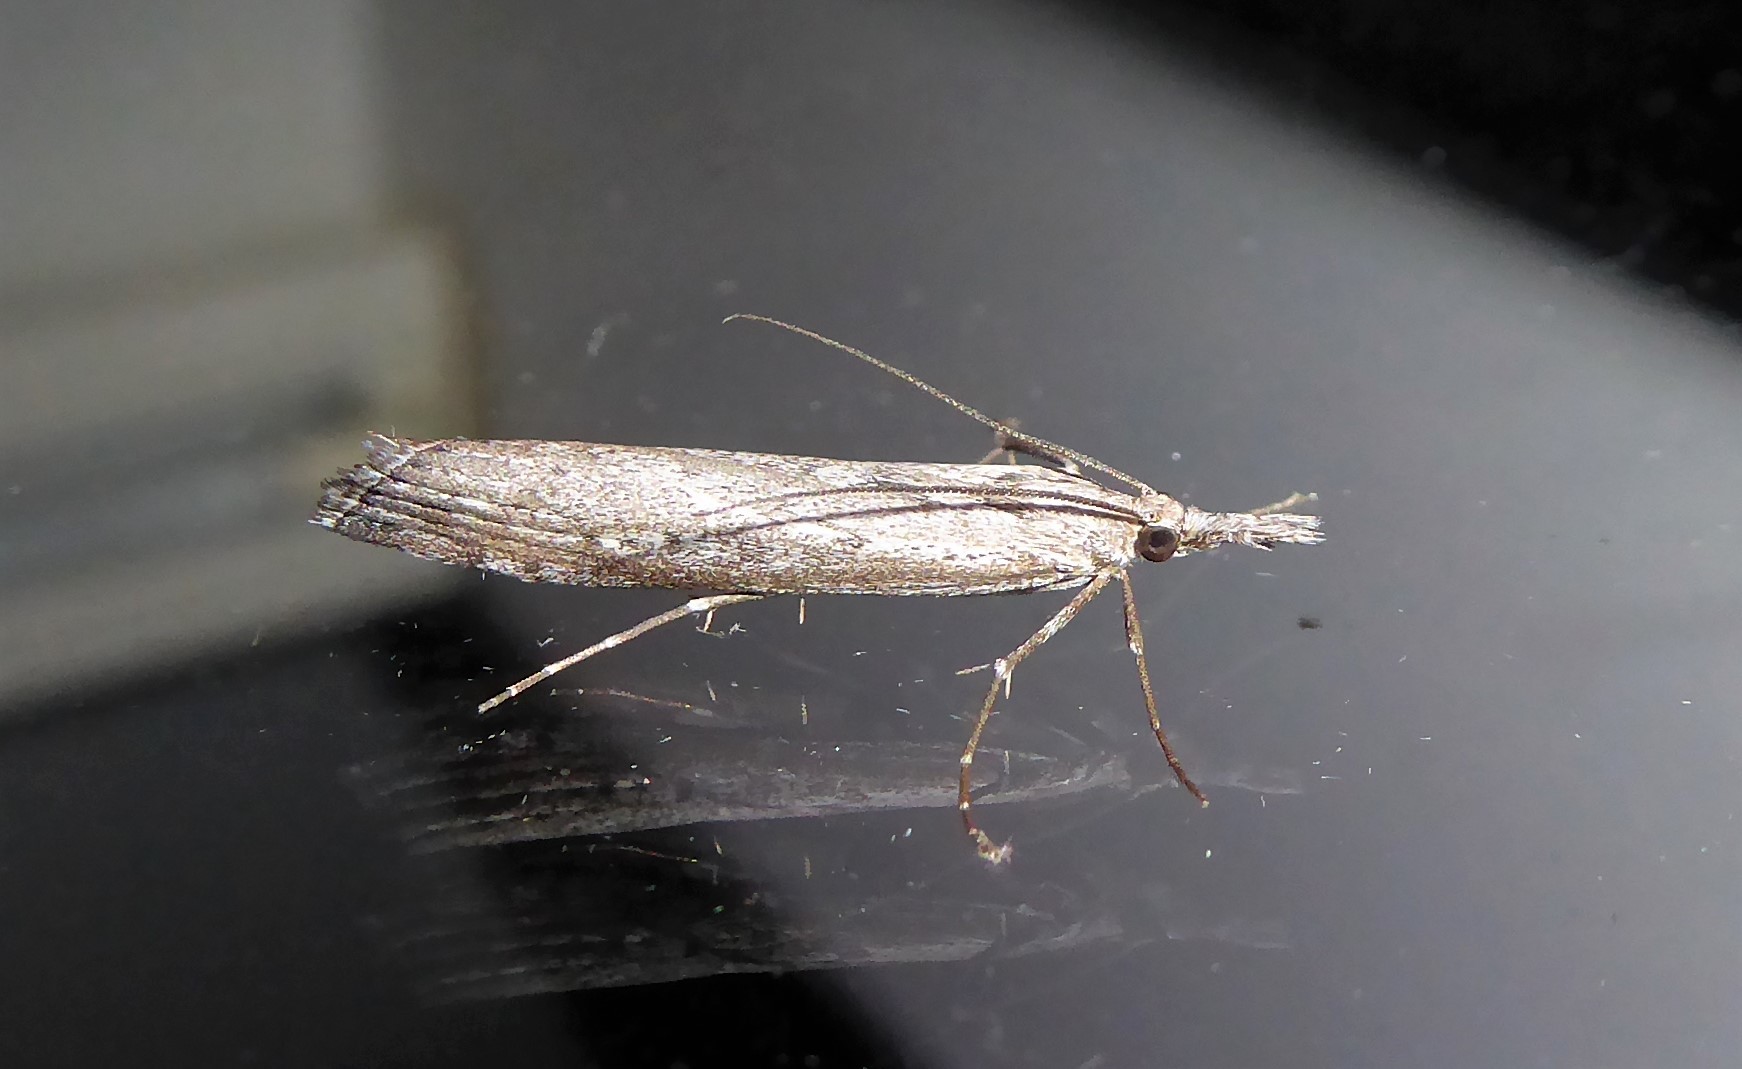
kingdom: Animalia
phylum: Arthropoda
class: Insecta
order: Lepidoptera
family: Crambidae
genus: Orocrambus
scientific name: Orocrambus cyclopicus
